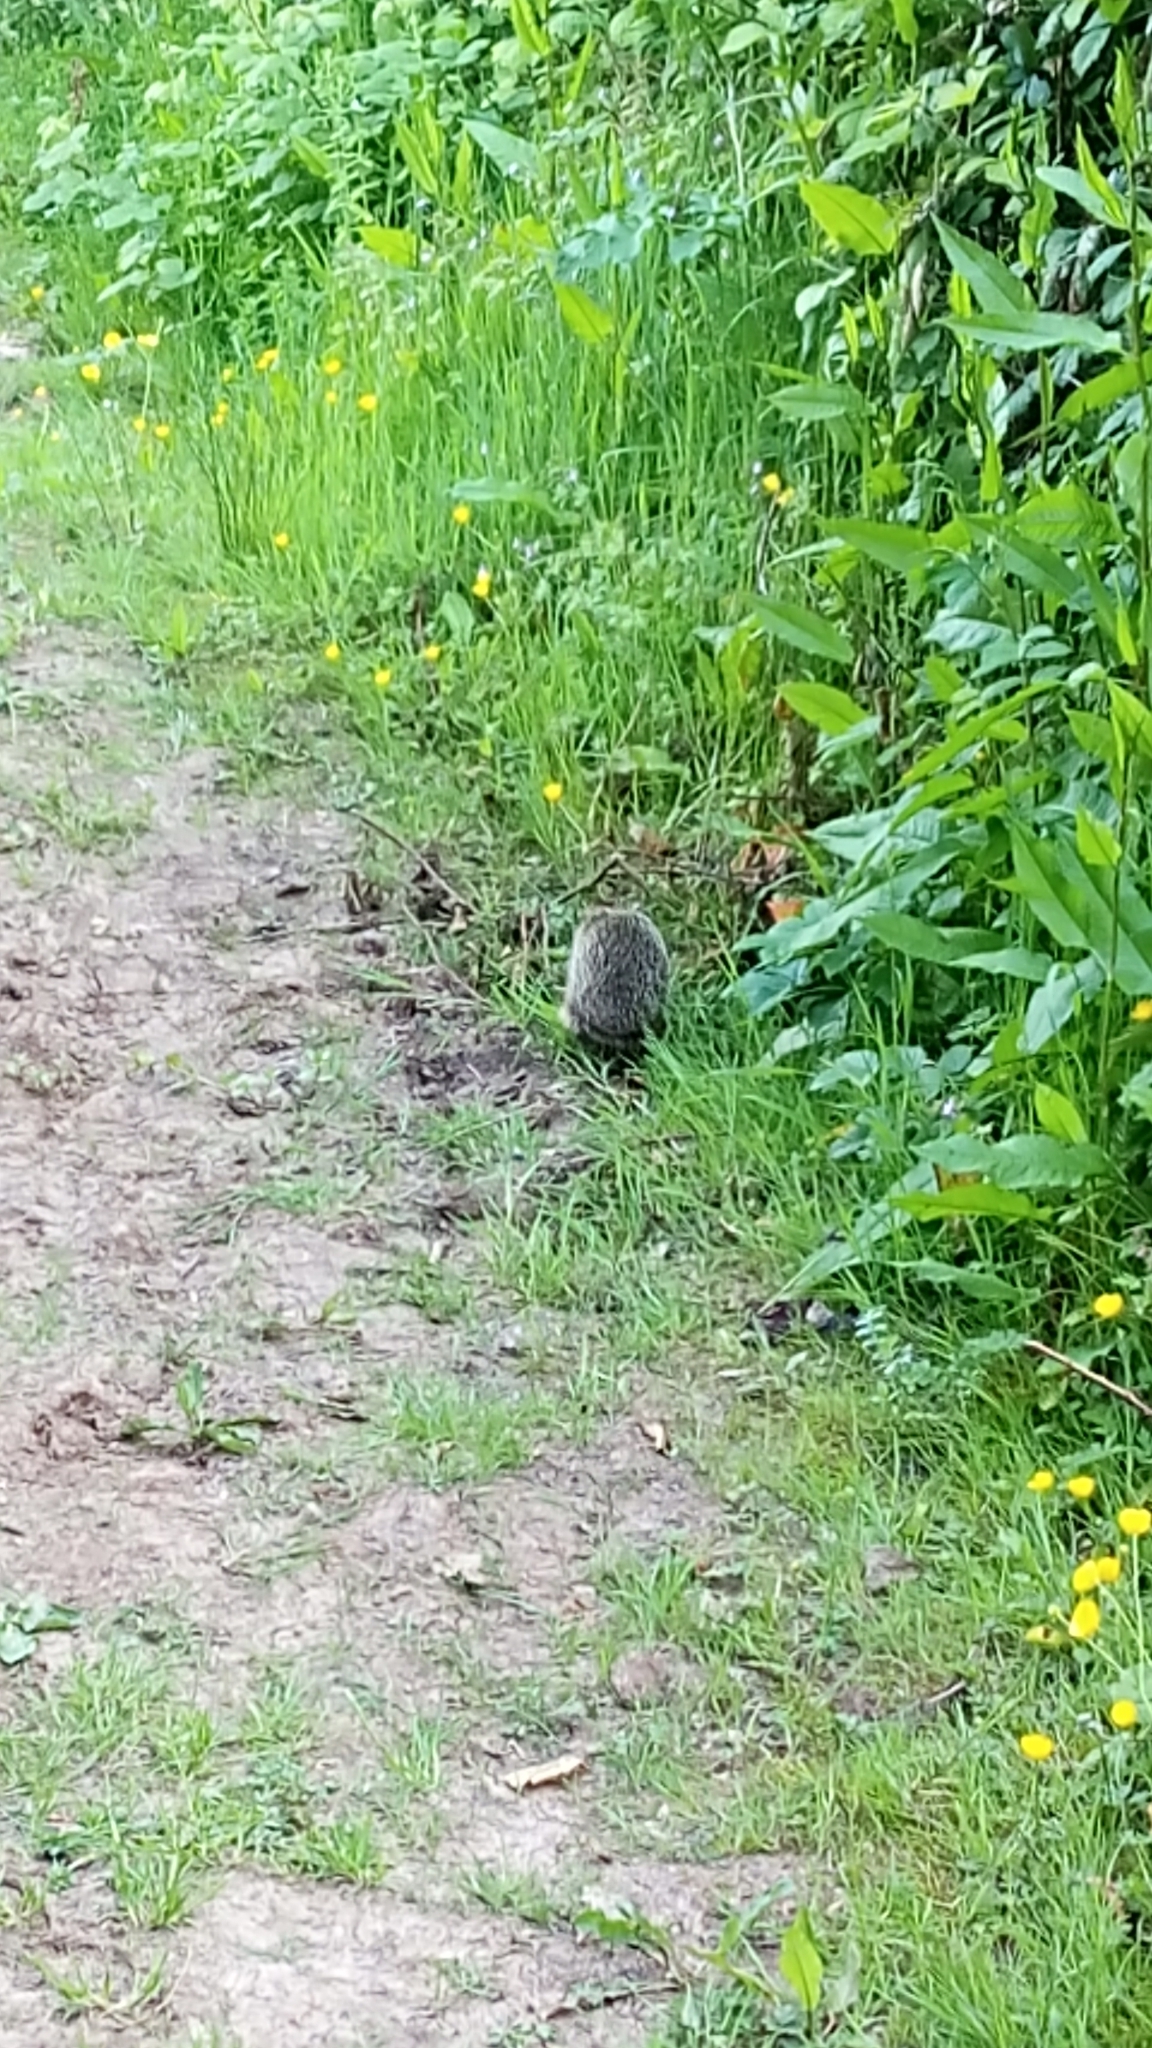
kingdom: Animalia
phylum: Chordata
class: Mammalia
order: Erinaceomorpha
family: Erinaceidae
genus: Erinaceus
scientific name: Erinaceus europaeus
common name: West european hedgehog
